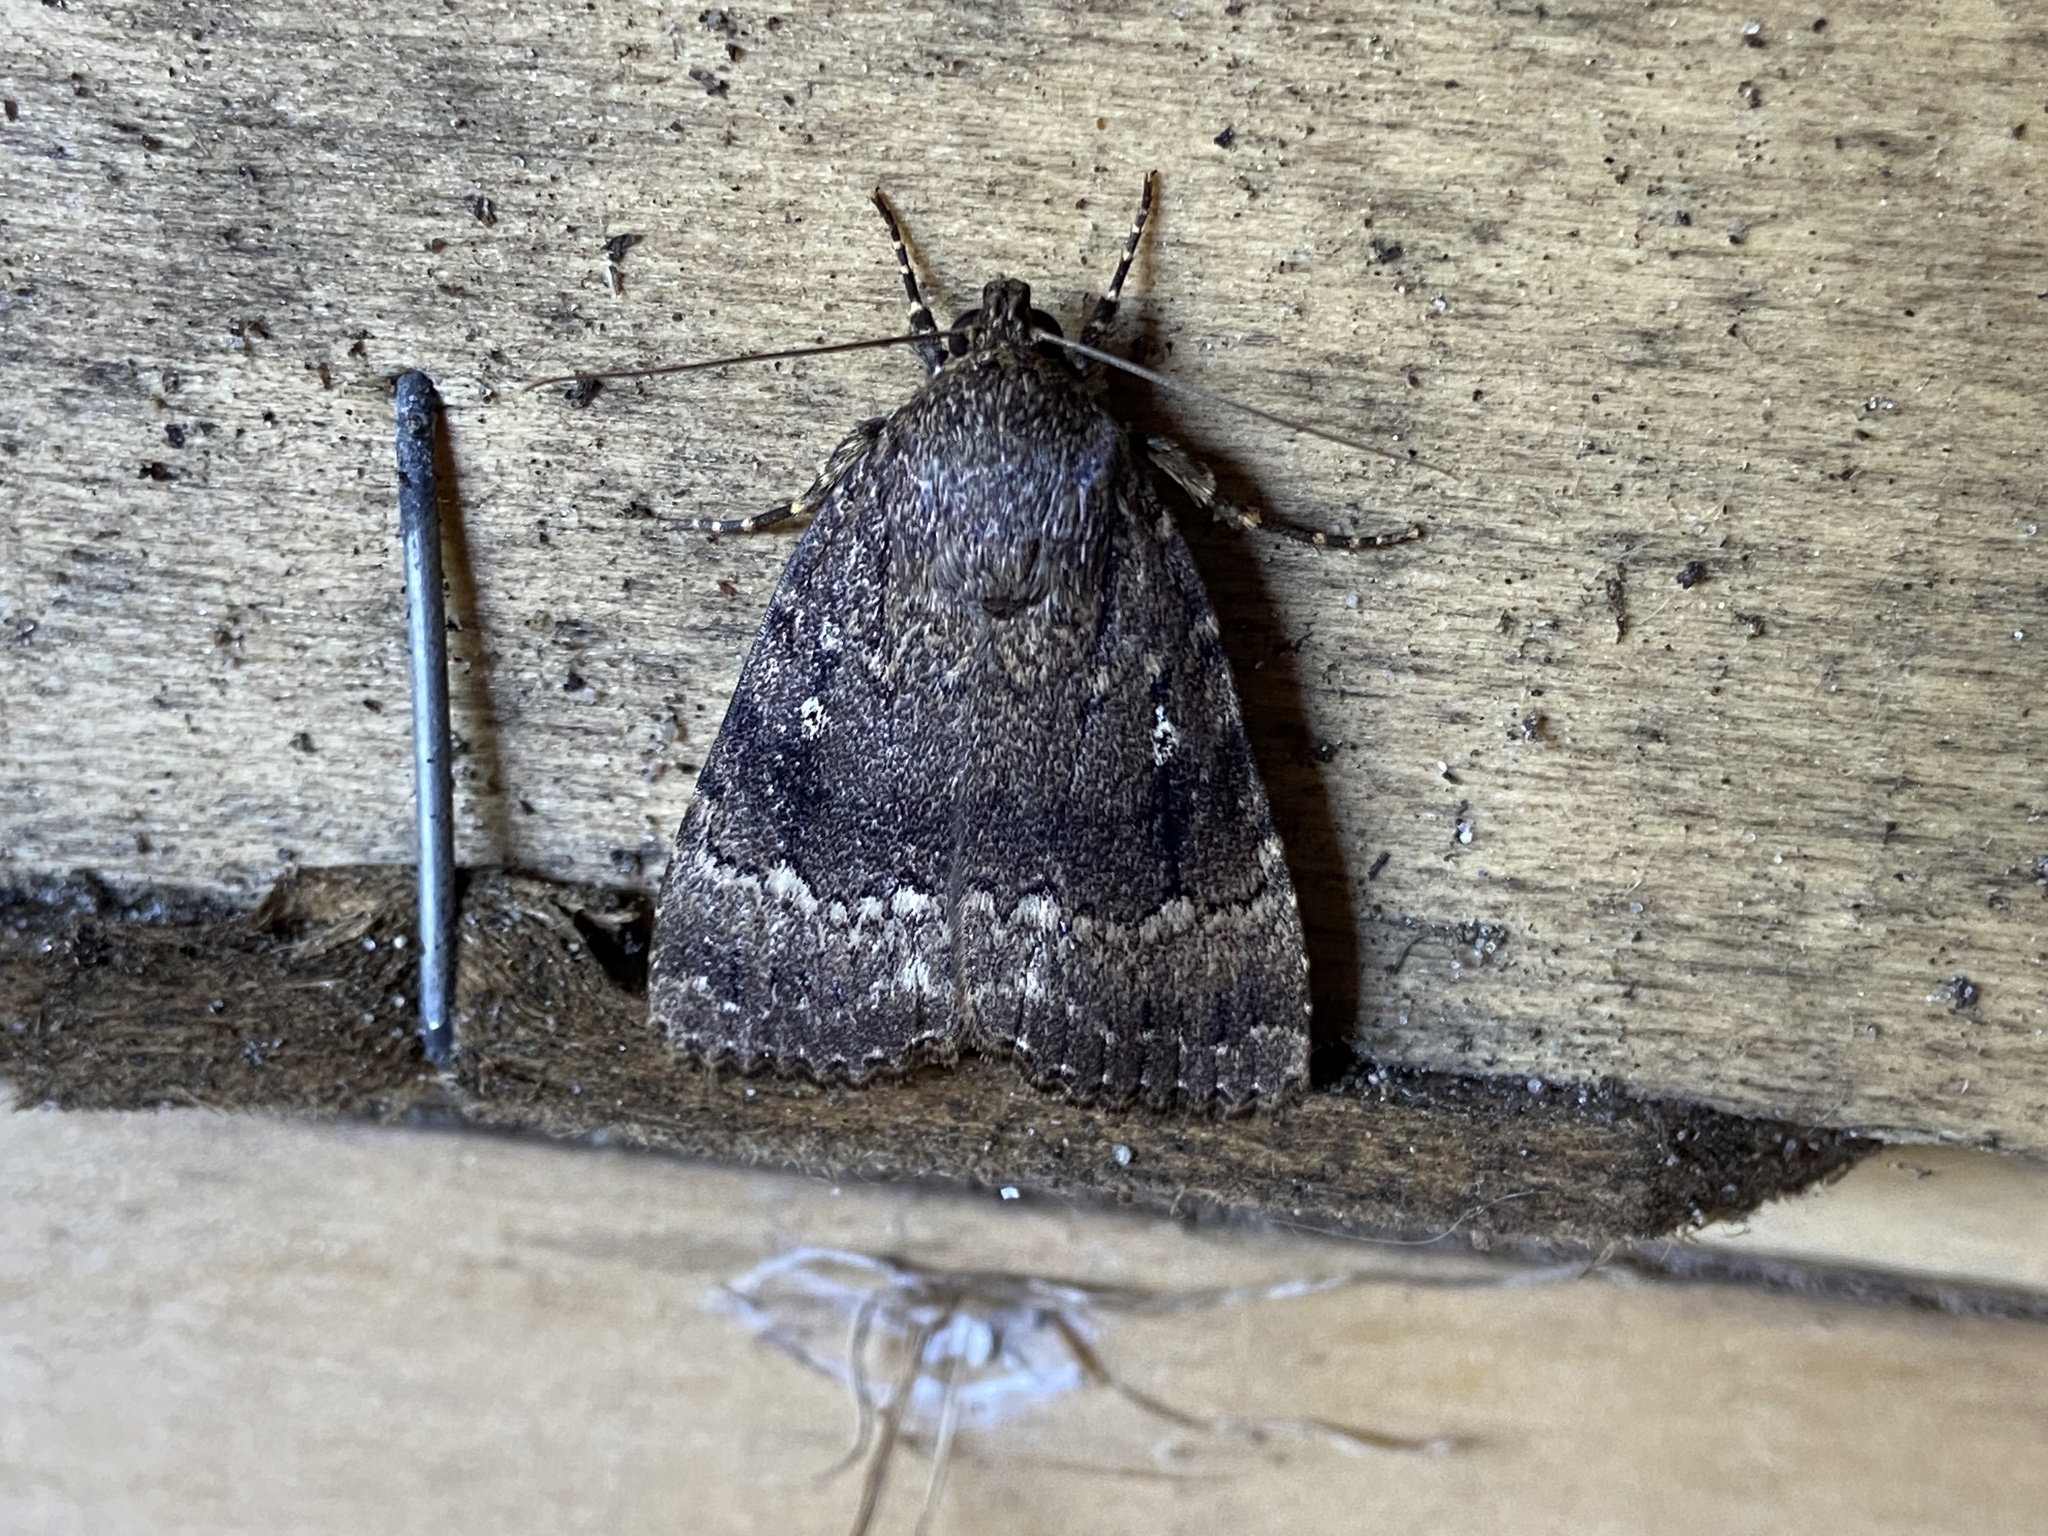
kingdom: Animalia
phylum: Arthropoda
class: Insecta
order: Lepidoptera
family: Noctuidae
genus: Amphipyra
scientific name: Amphipyra pyramidea
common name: Copper underwing
